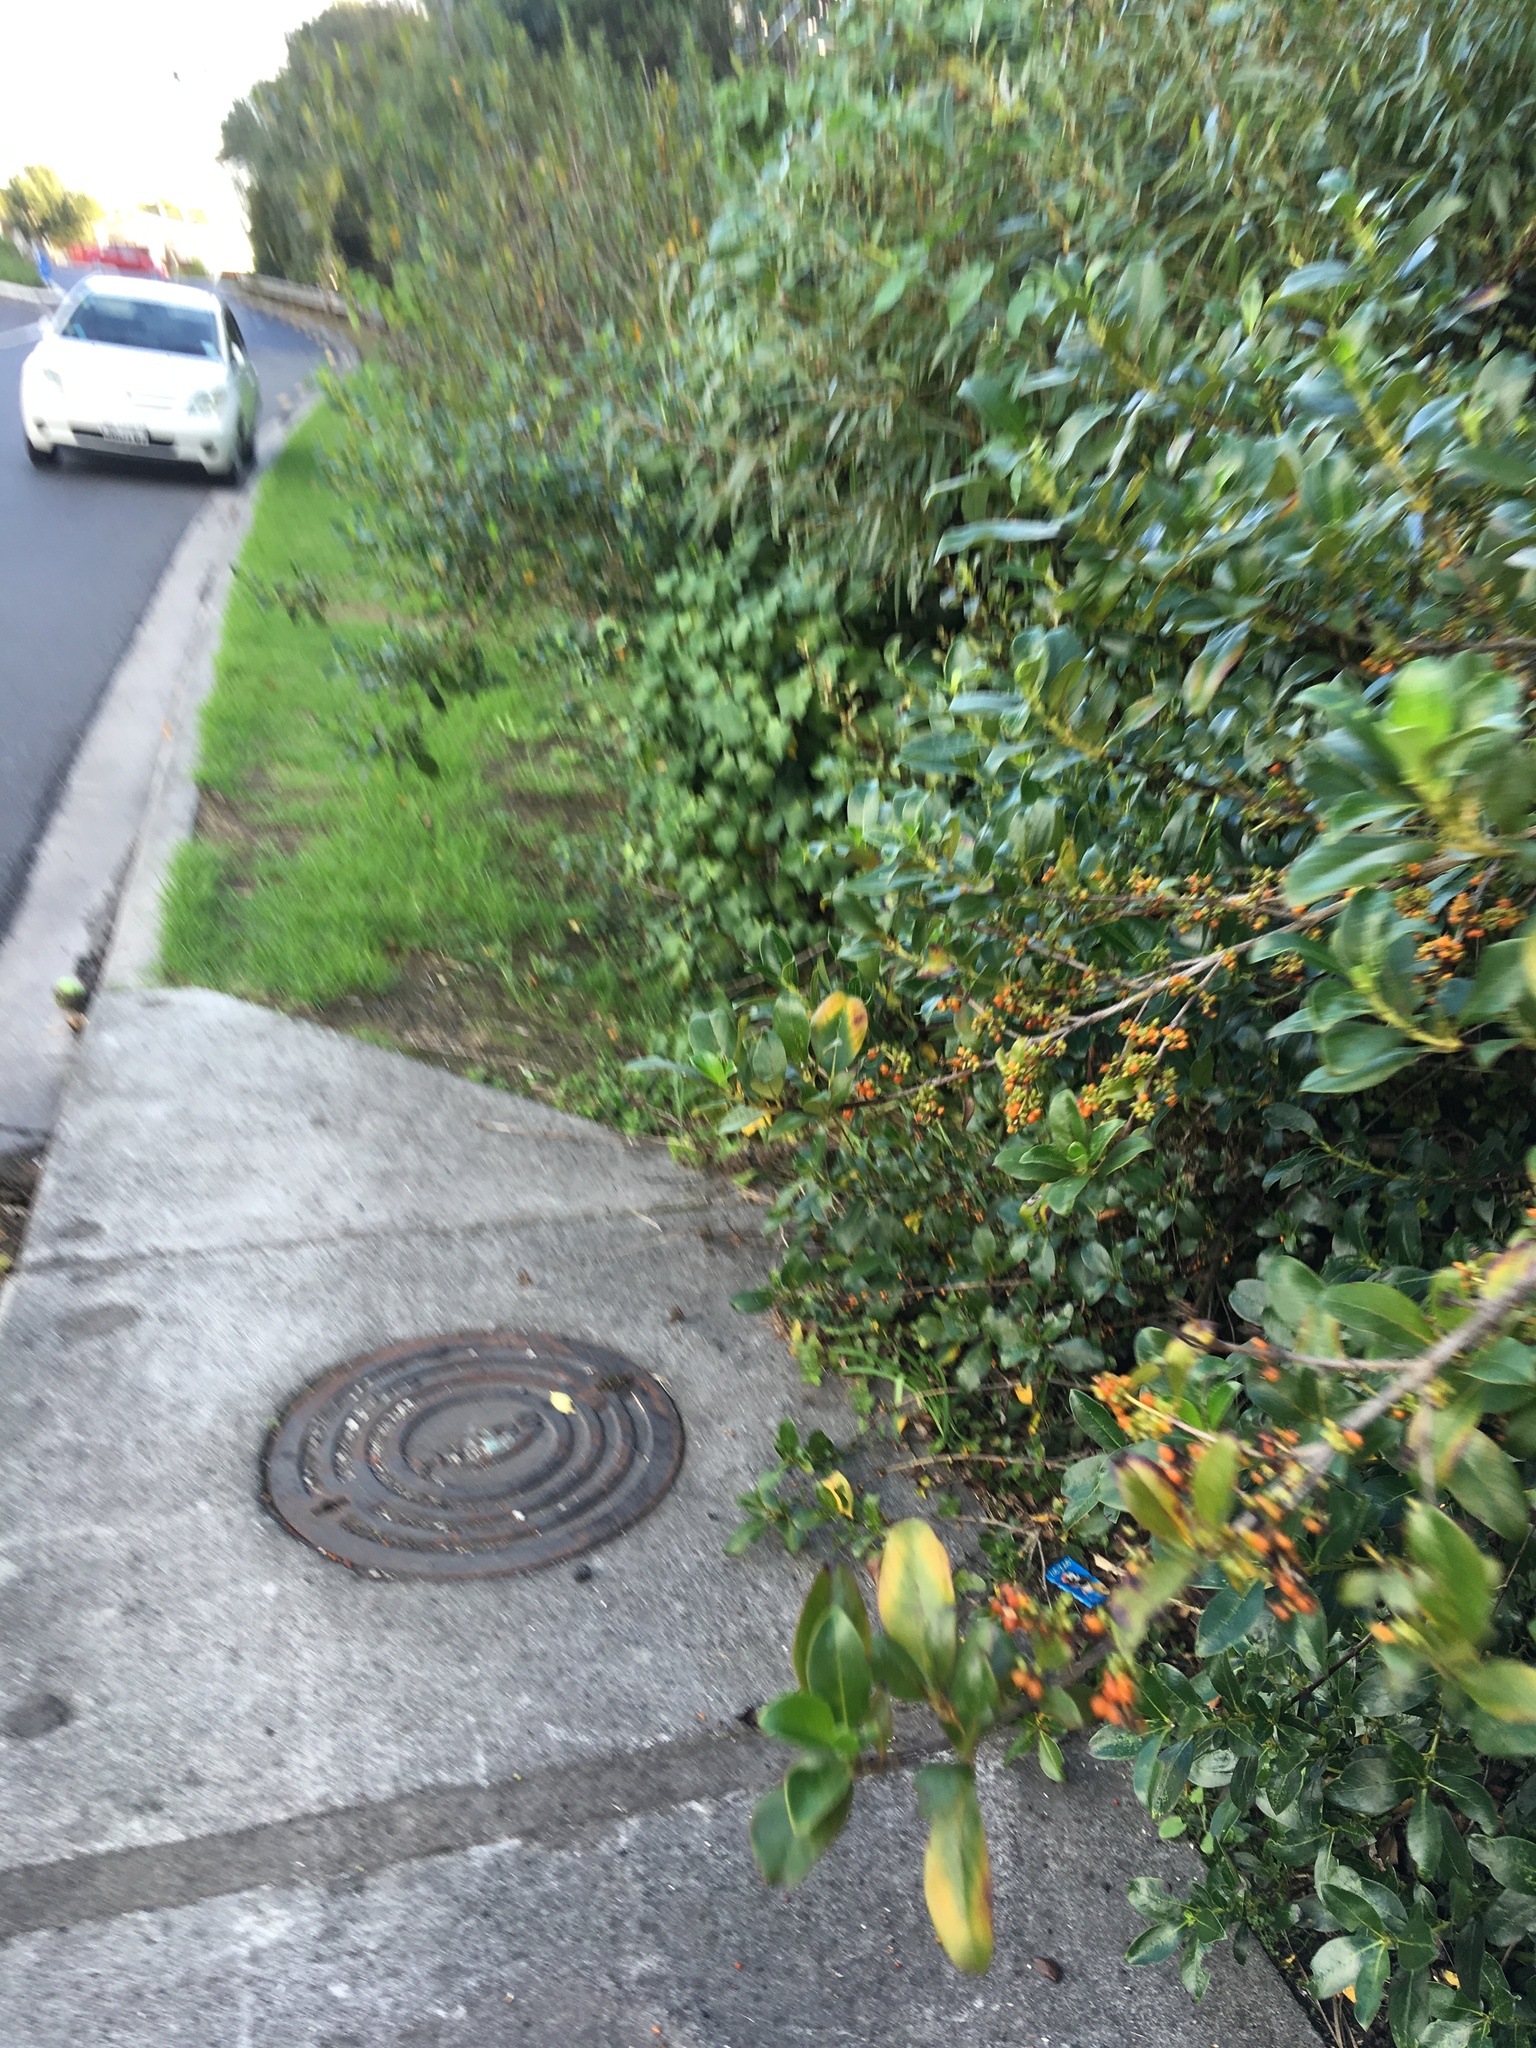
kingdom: Plantae
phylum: Tracheophyta
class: Magnoliopsida
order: Gentianales
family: Rubiaceae
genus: Coprosma
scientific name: Coprosma robusta
